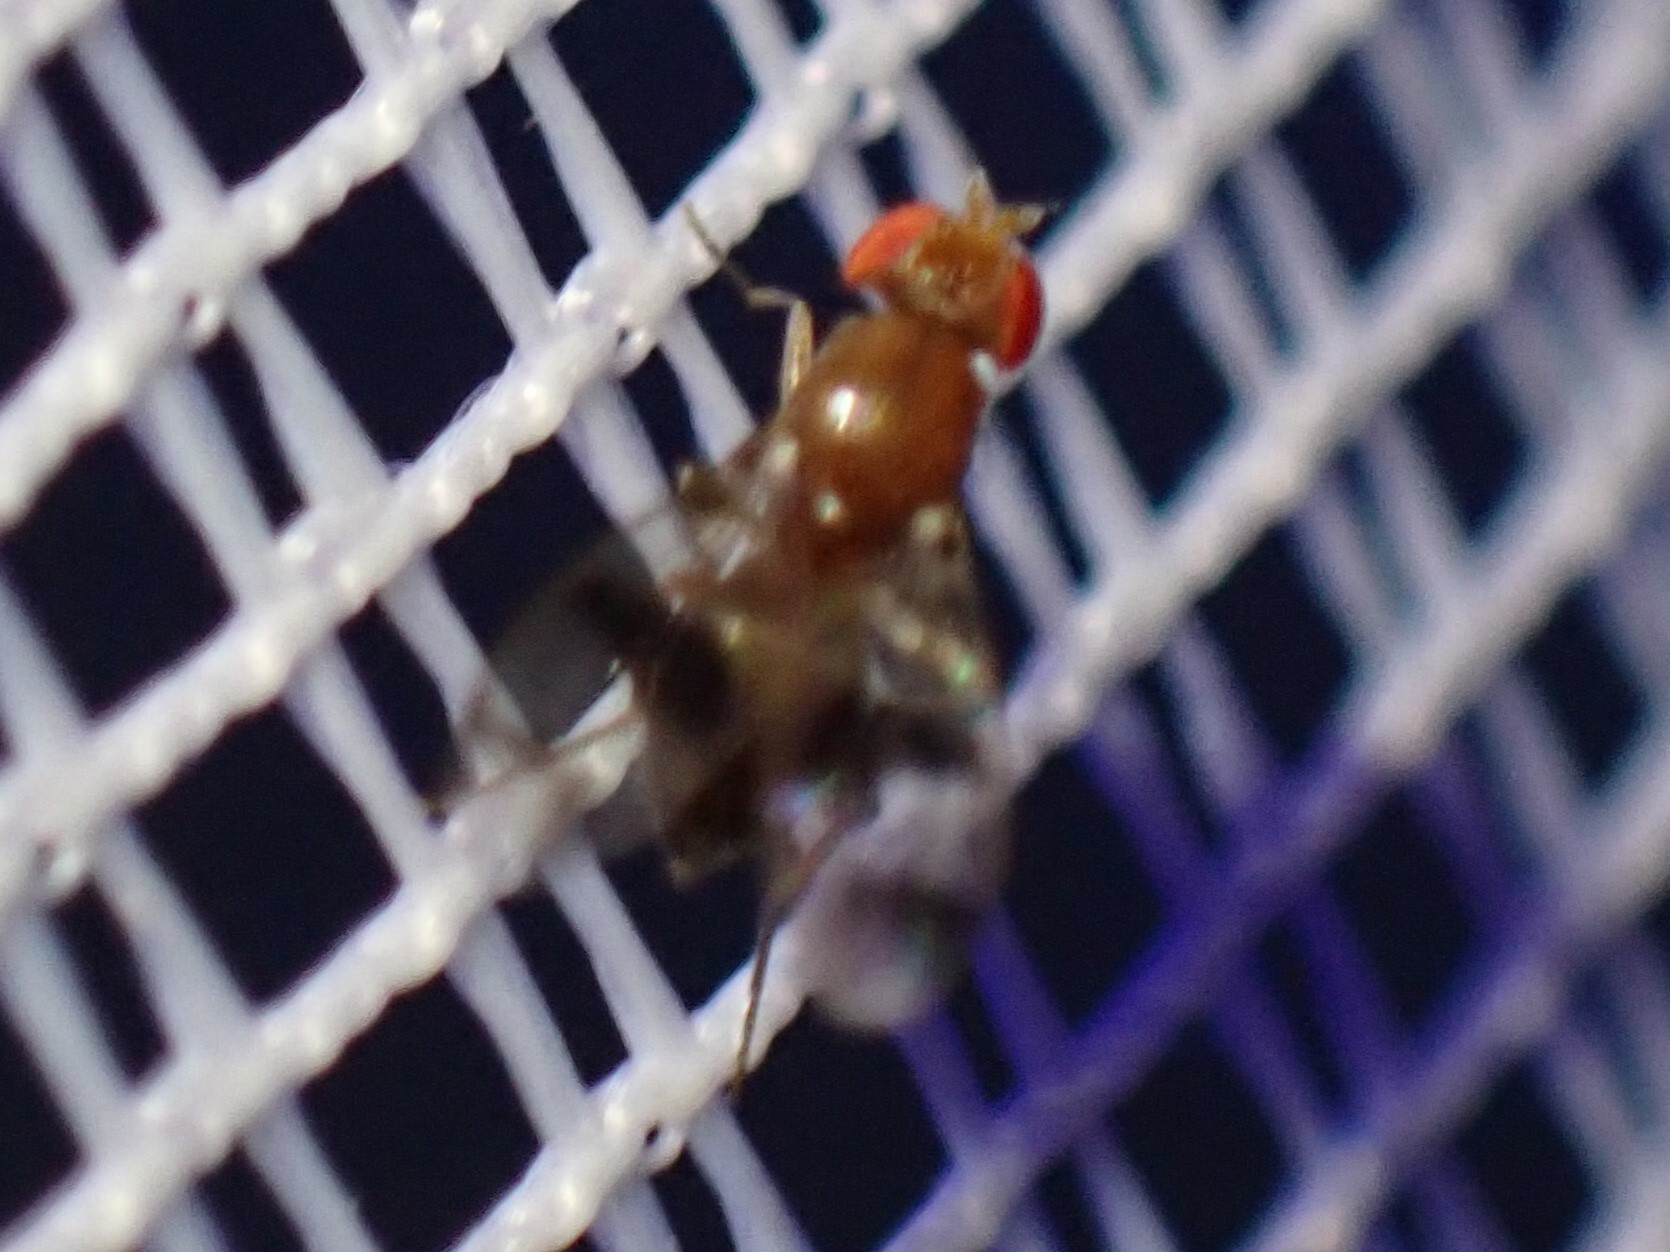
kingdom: Animalia
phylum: Arthropoda
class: Insecta
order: Diptera
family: Drosophilidae
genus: Chymomyza
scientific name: Chymomyza amoena
